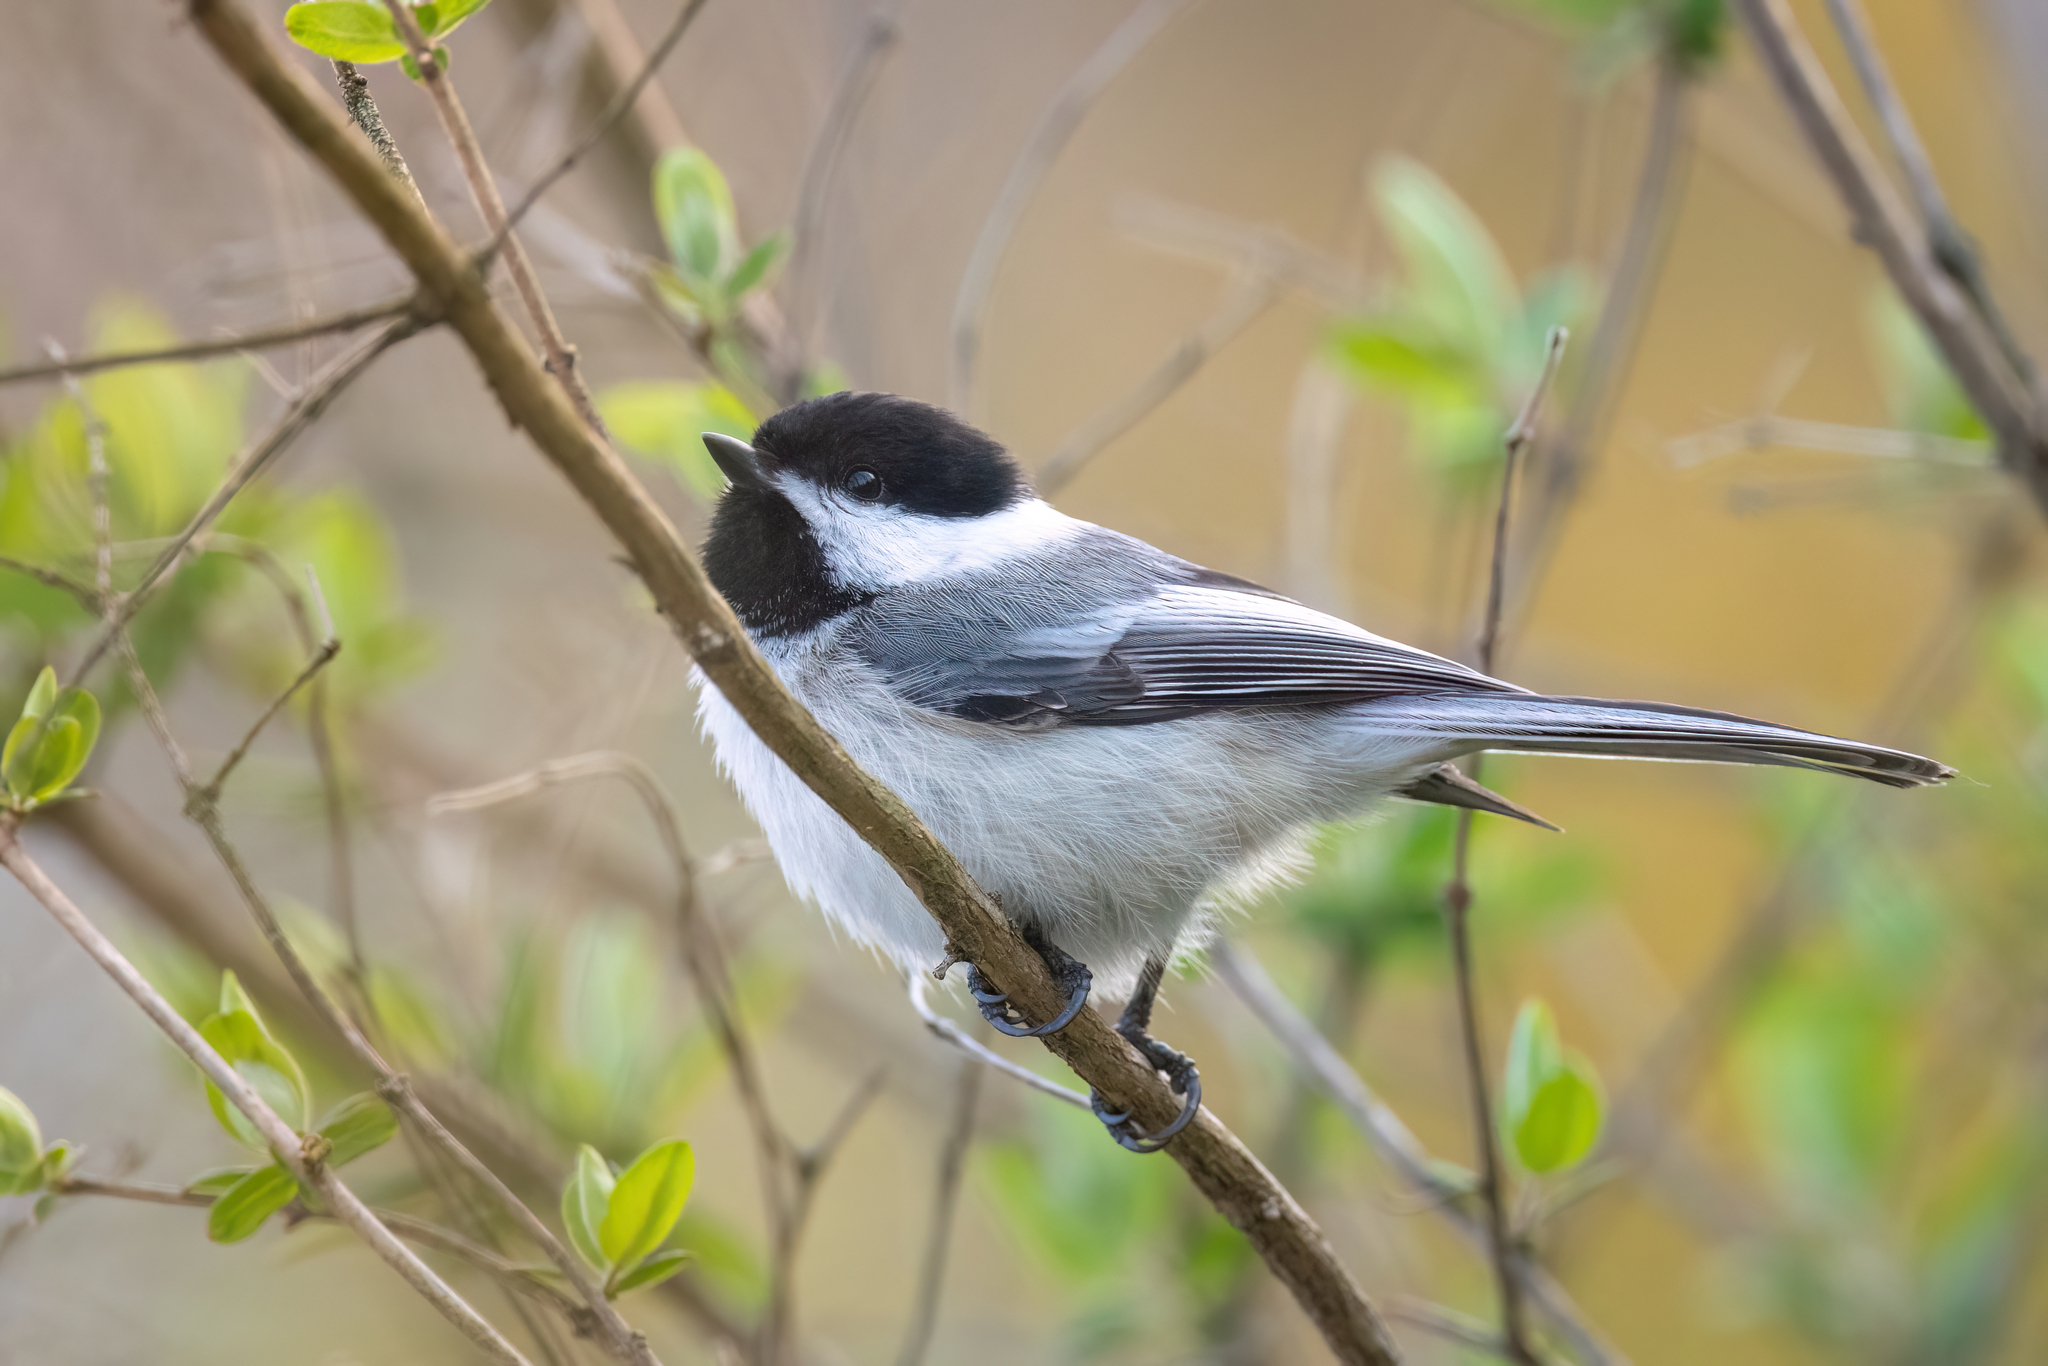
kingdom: Animalia
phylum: Chordata
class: Aves
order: Passeriformes
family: Paridae
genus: Poecile
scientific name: Poecile atricapillus
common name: Black-capped chickadee
